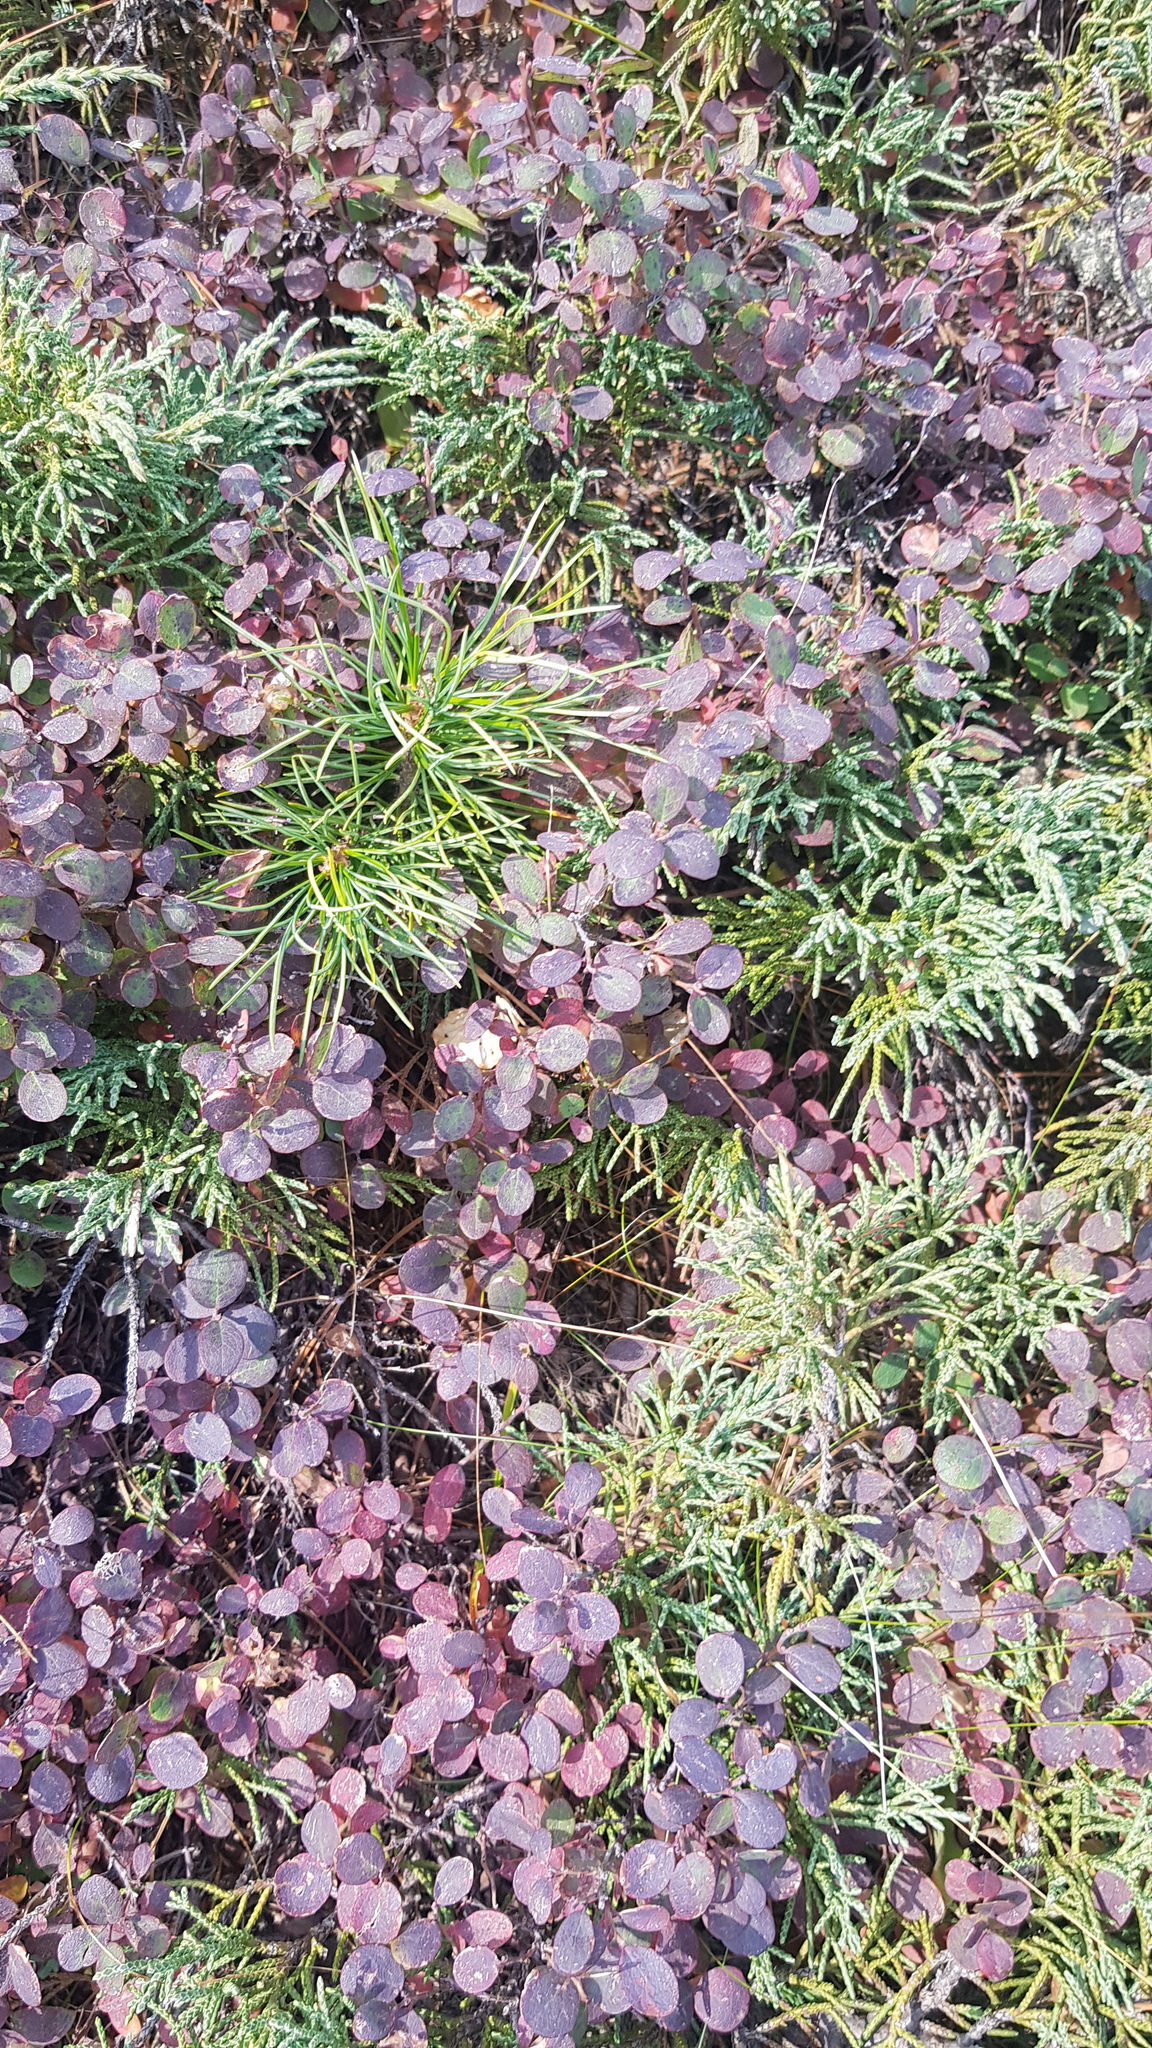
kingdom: Plantae
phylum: Tracheophyta
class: Magnoliopsida
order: Ericales
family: Ericaceae
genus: Vaccinium
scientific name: Vaccinium uliginosum
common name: Bog bilberry
